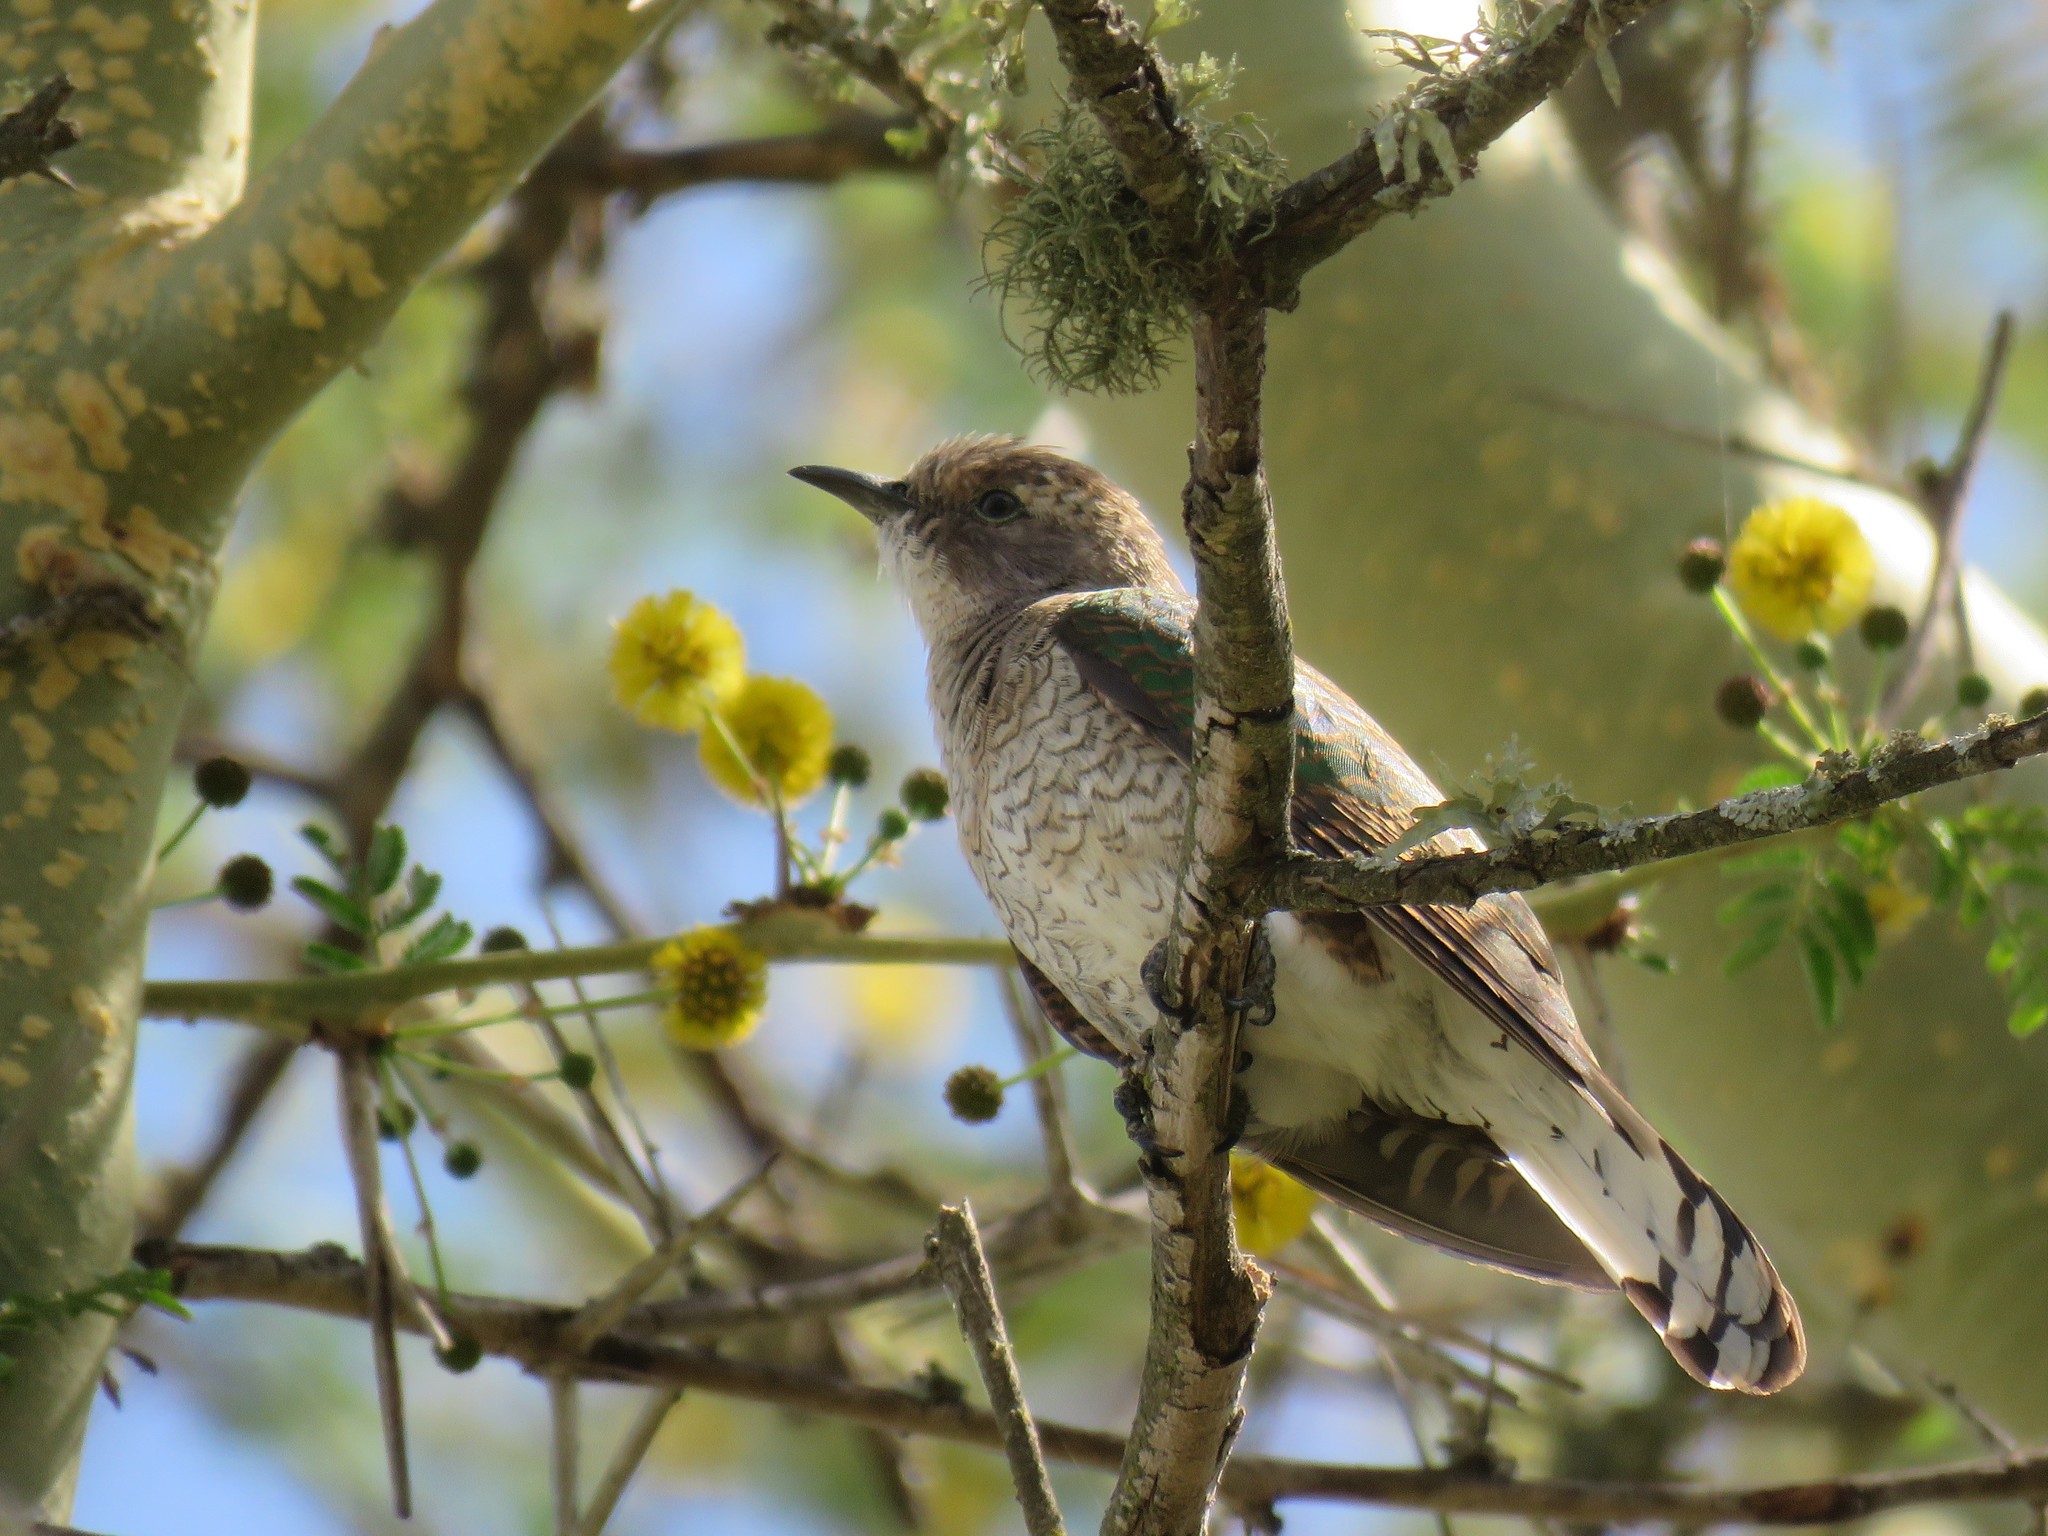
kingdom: Animalia
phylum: Chordata
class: Aves
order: Cuculiformes
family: Cuculidae
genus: Chrysococcyx
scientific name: Chrysococcyx klaas
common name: Klaas's cuckoo
